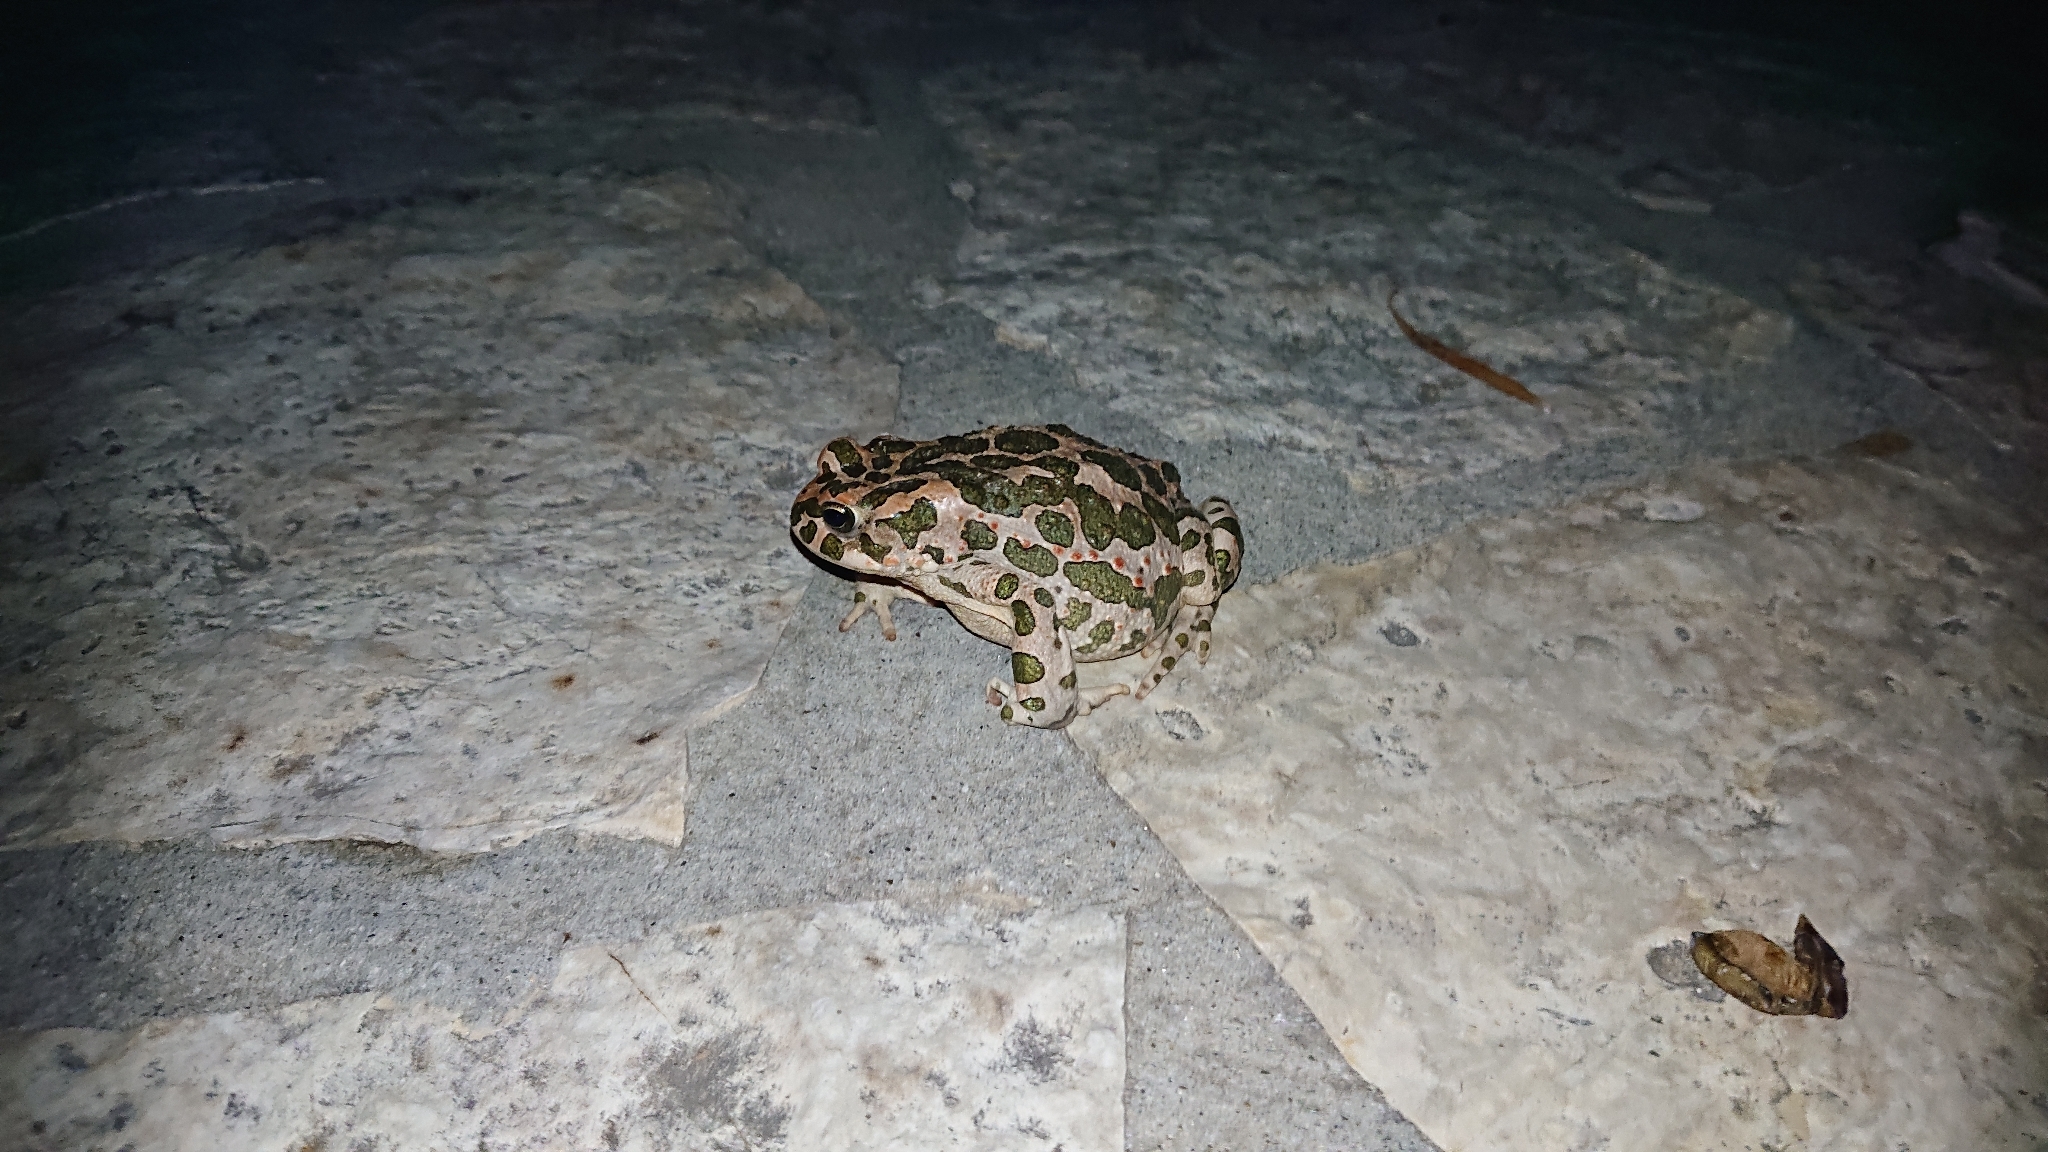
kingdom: Animalia
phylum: Chordata
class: Amphibia
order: Anura
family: Bufonidae
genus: Bufotes
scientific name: Bufotes viridis
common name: European green toad
